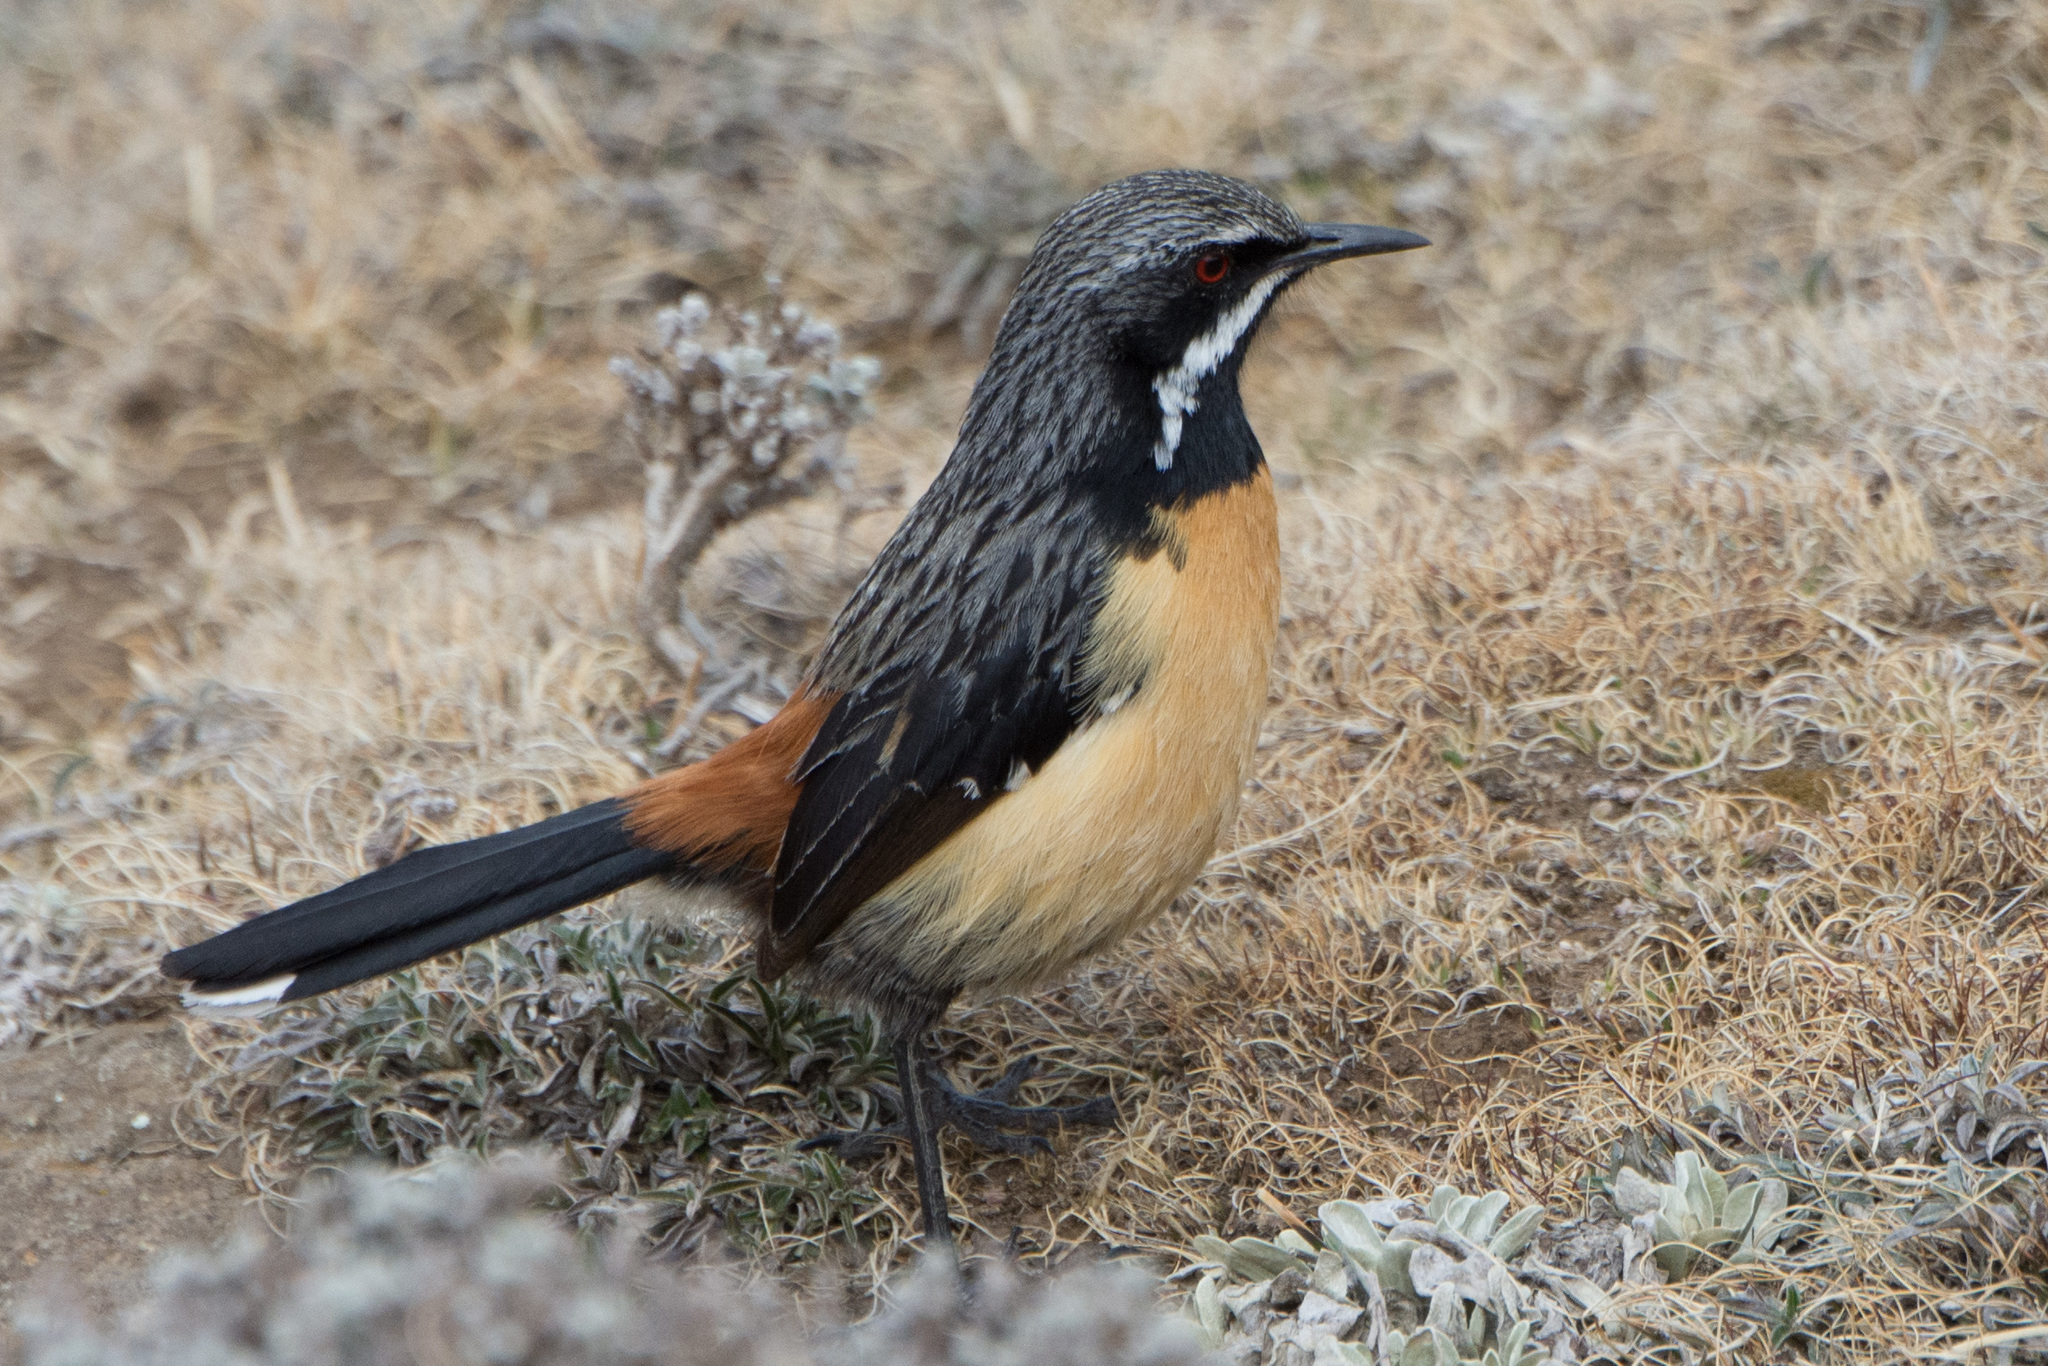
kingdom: Animalia
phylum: Chordata
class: Aves
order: Passeriformes
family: Chaetopidae
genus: Chaetops
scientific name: Chaetops aurantius
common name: Drakensberg rockjumper
